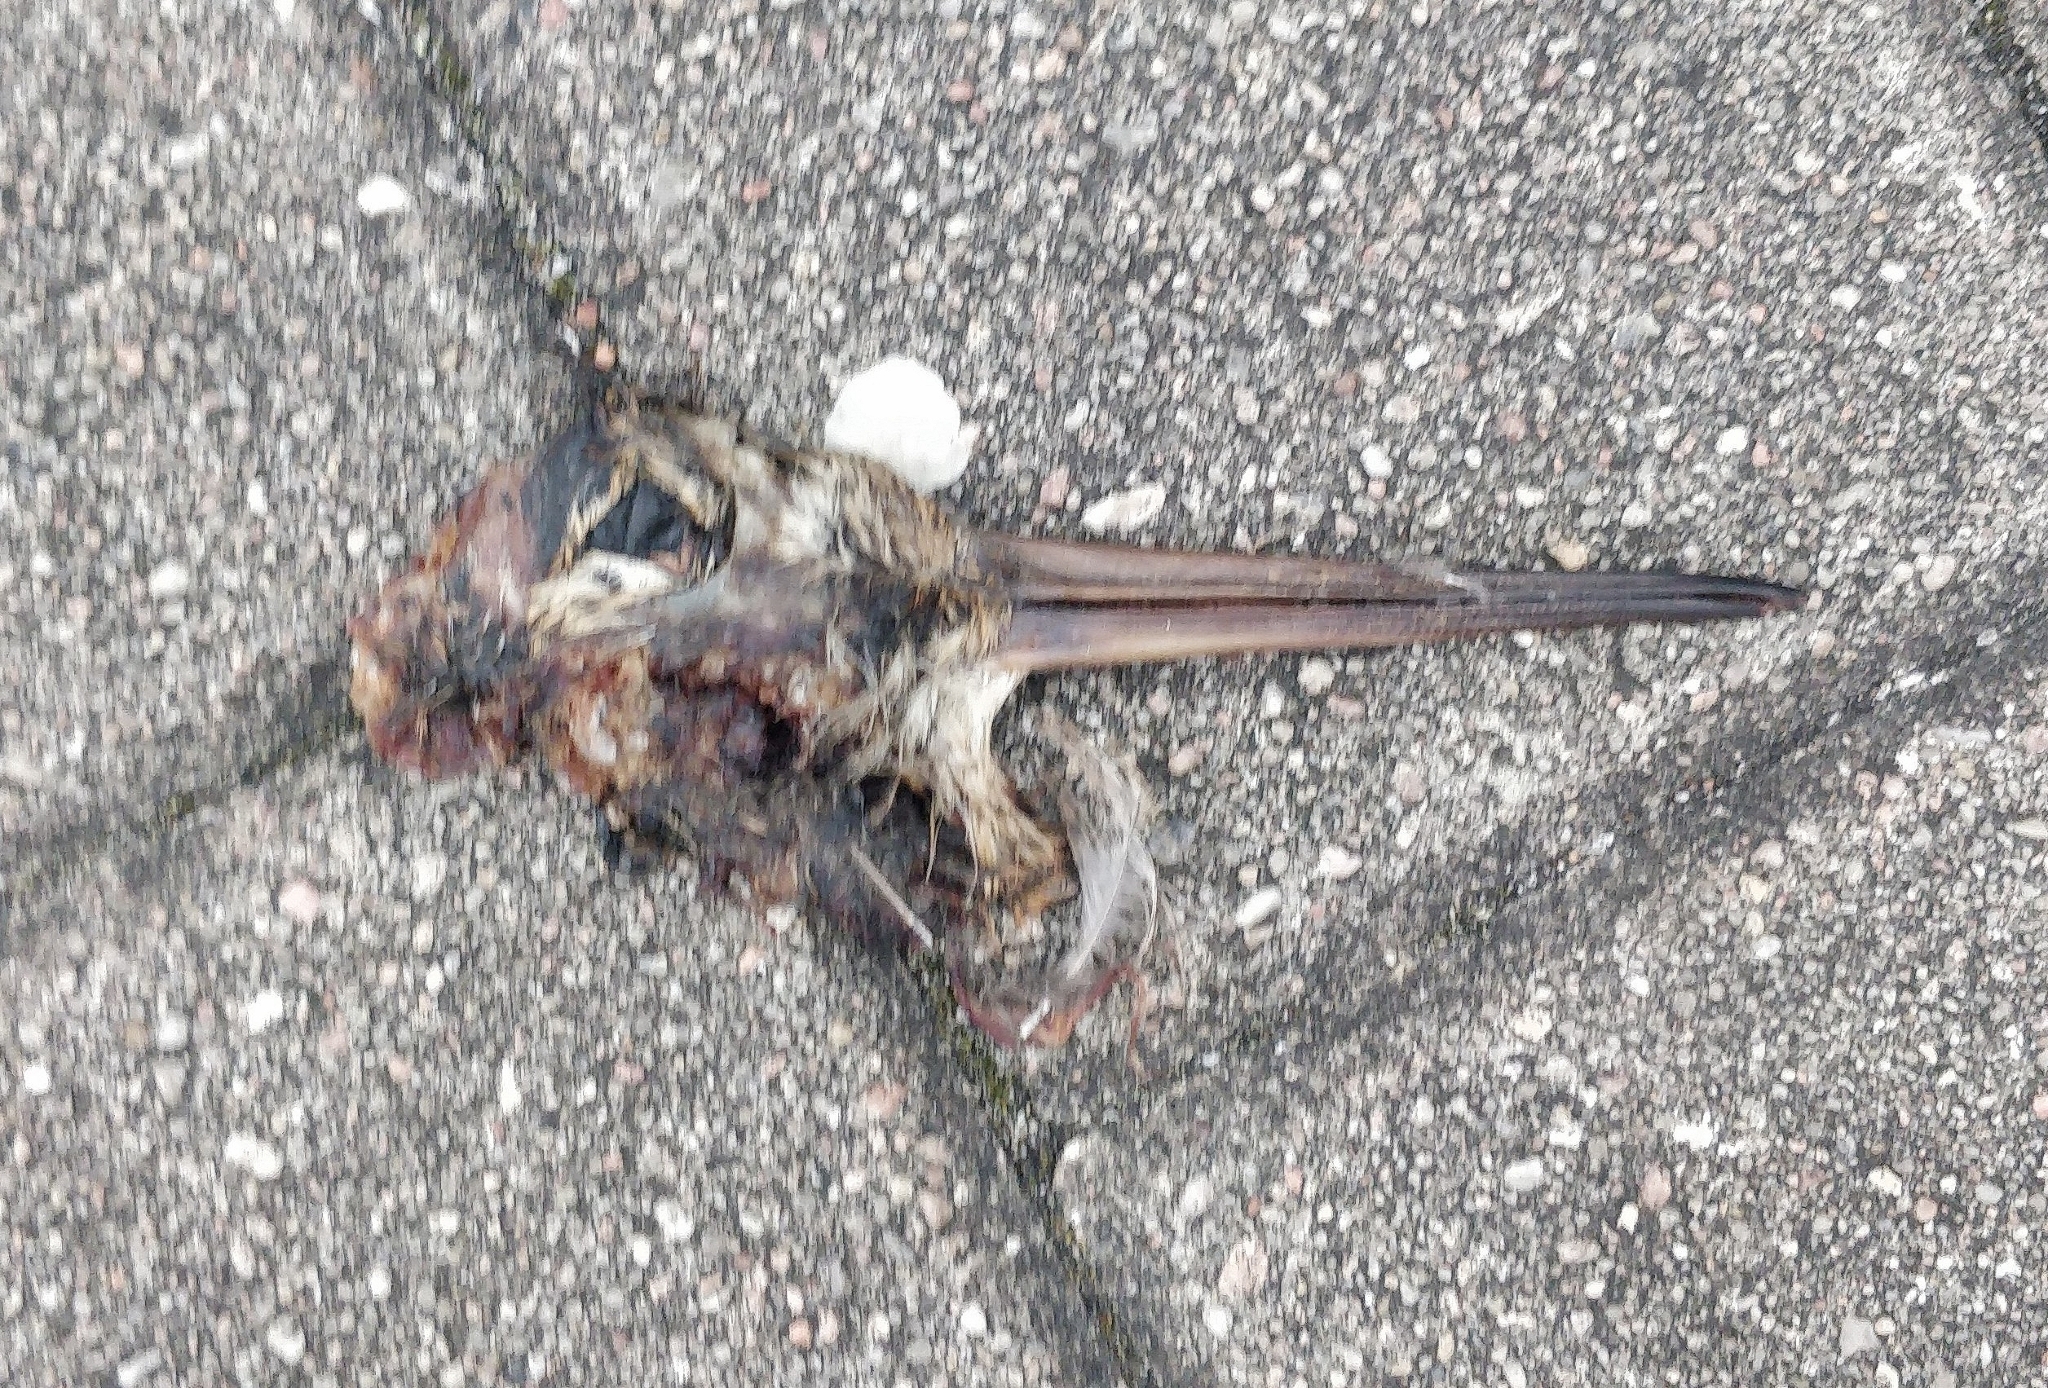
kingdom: Animalia
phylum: Chordata
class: Aves
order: Charadriiformes
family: Scolopacidae
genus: Scolopax
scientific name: Scolopax rusticola
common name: Eurasian woodcock
